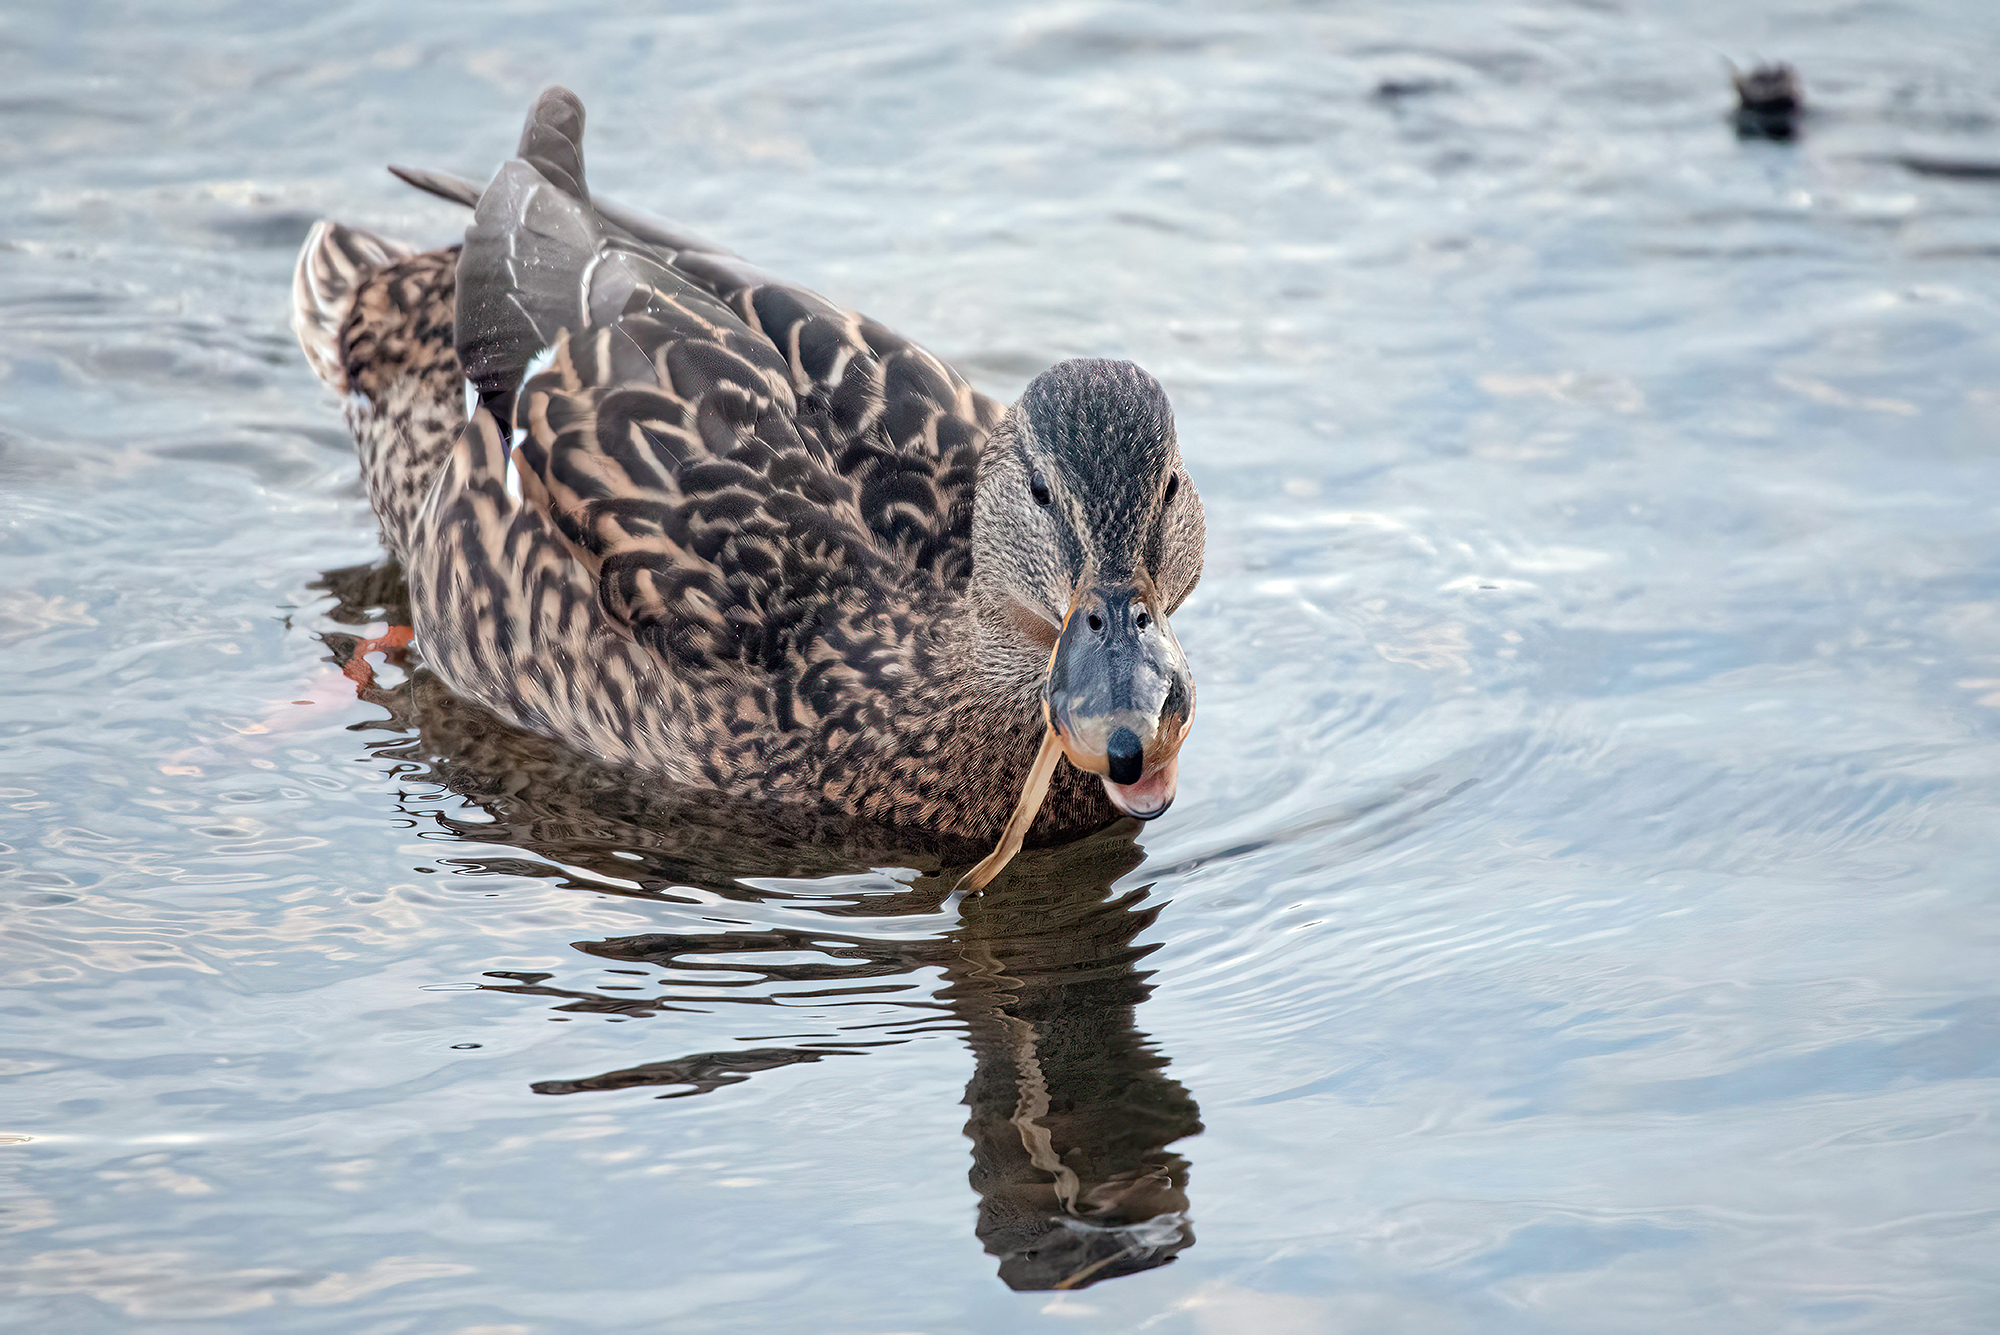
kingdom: Animalia
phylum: Chordata
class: Aves
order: Anseriformes
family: Anatidae
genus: Anas
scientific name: Anas platyrhynchos
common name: Mallard
